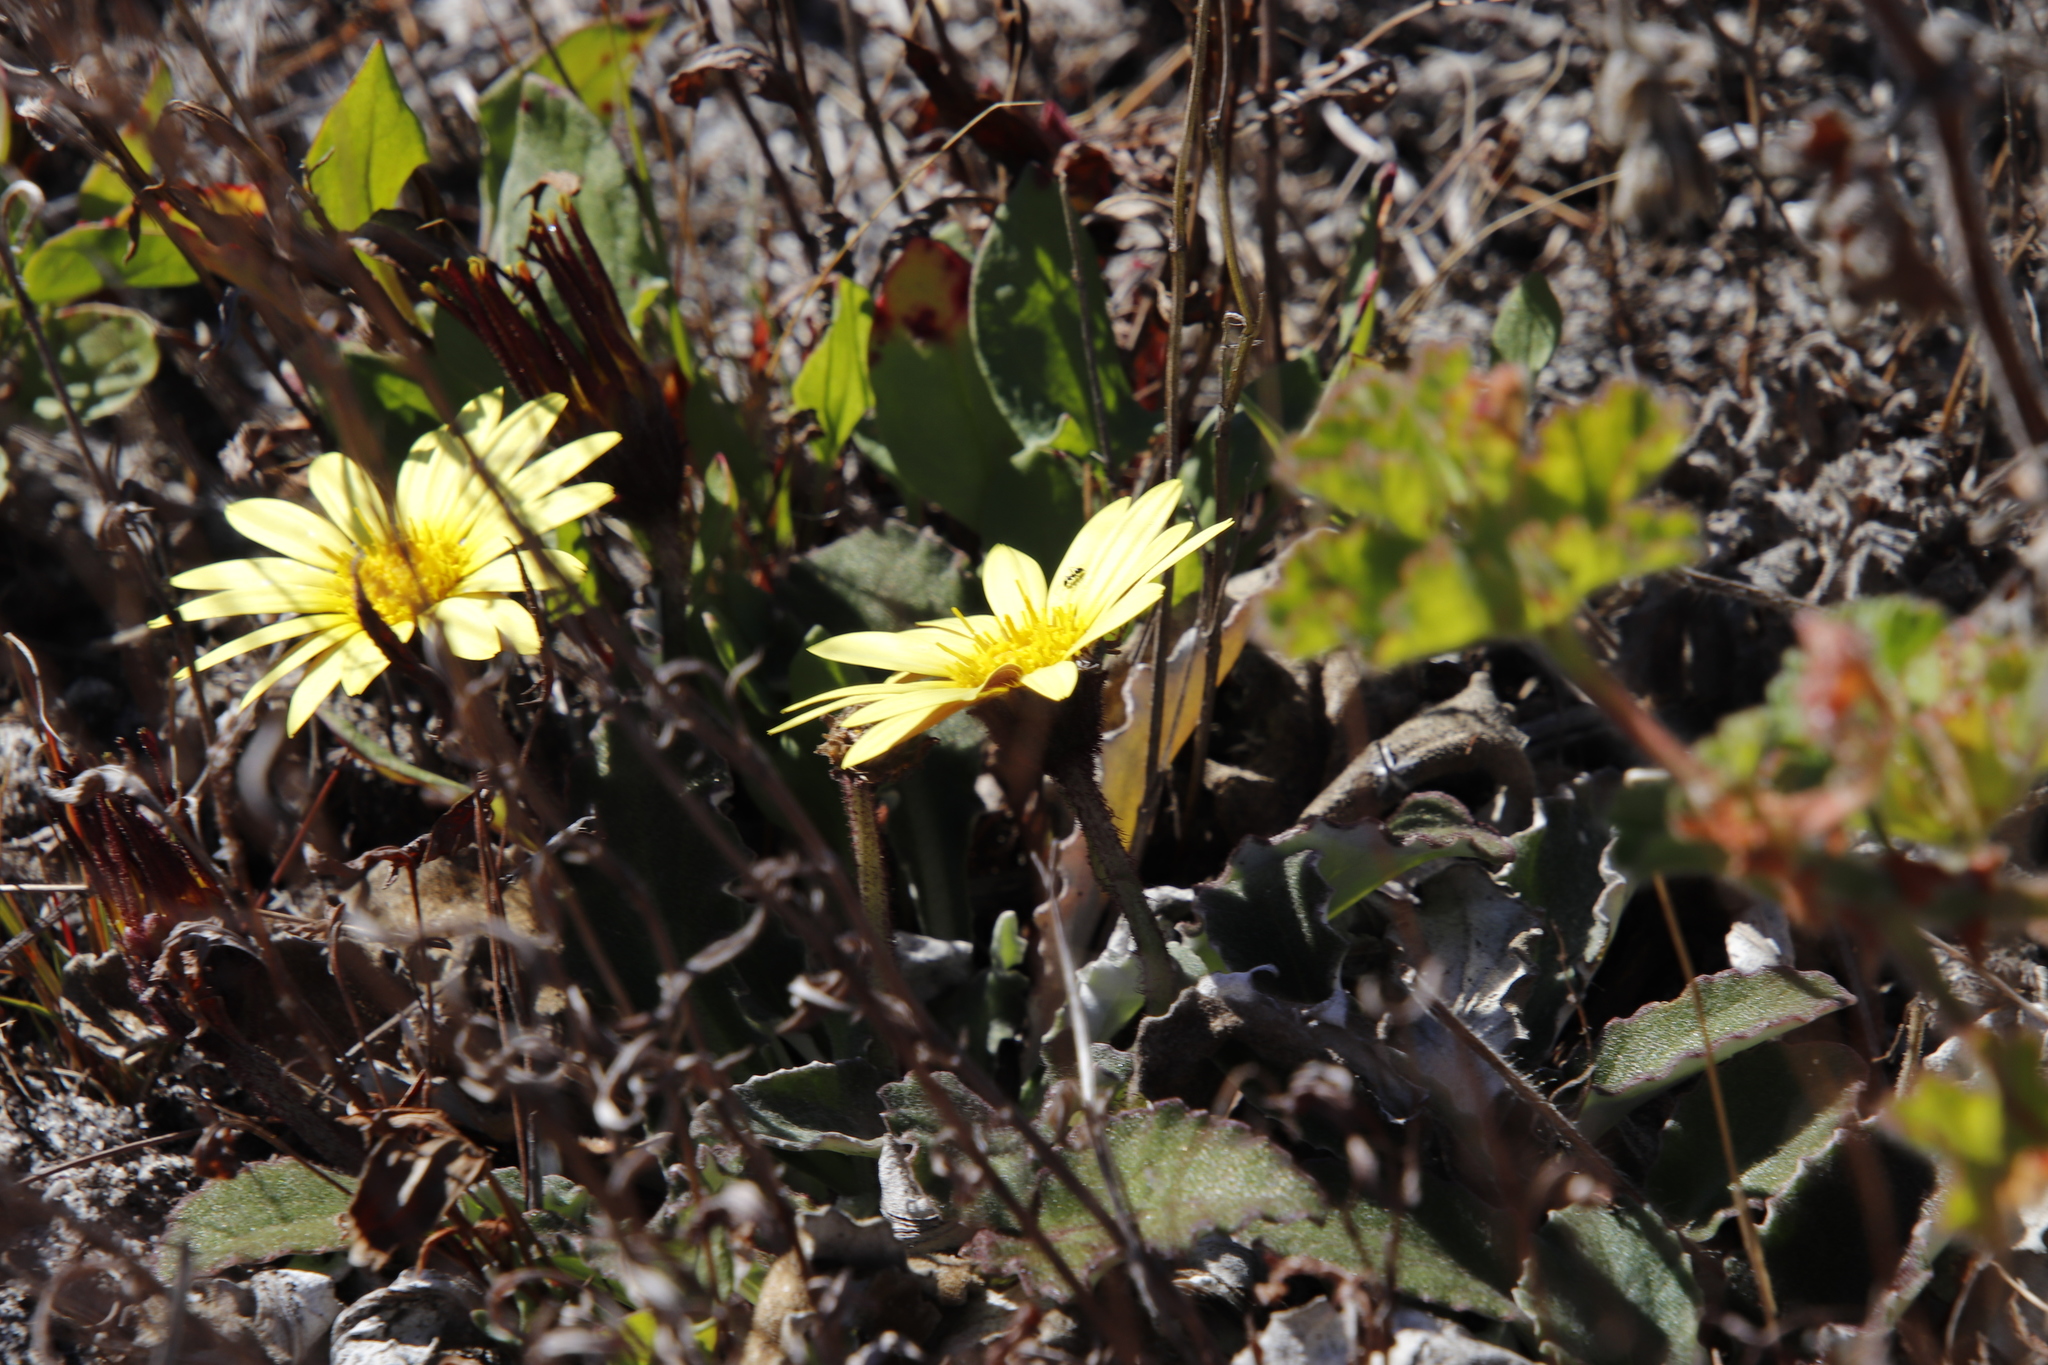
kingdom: Plantae
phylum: Tracheophyta
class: Magnoliopsida
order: Asterales
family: Asteraceae
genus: Haplocarpha
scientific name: Haplocarpha lanata
